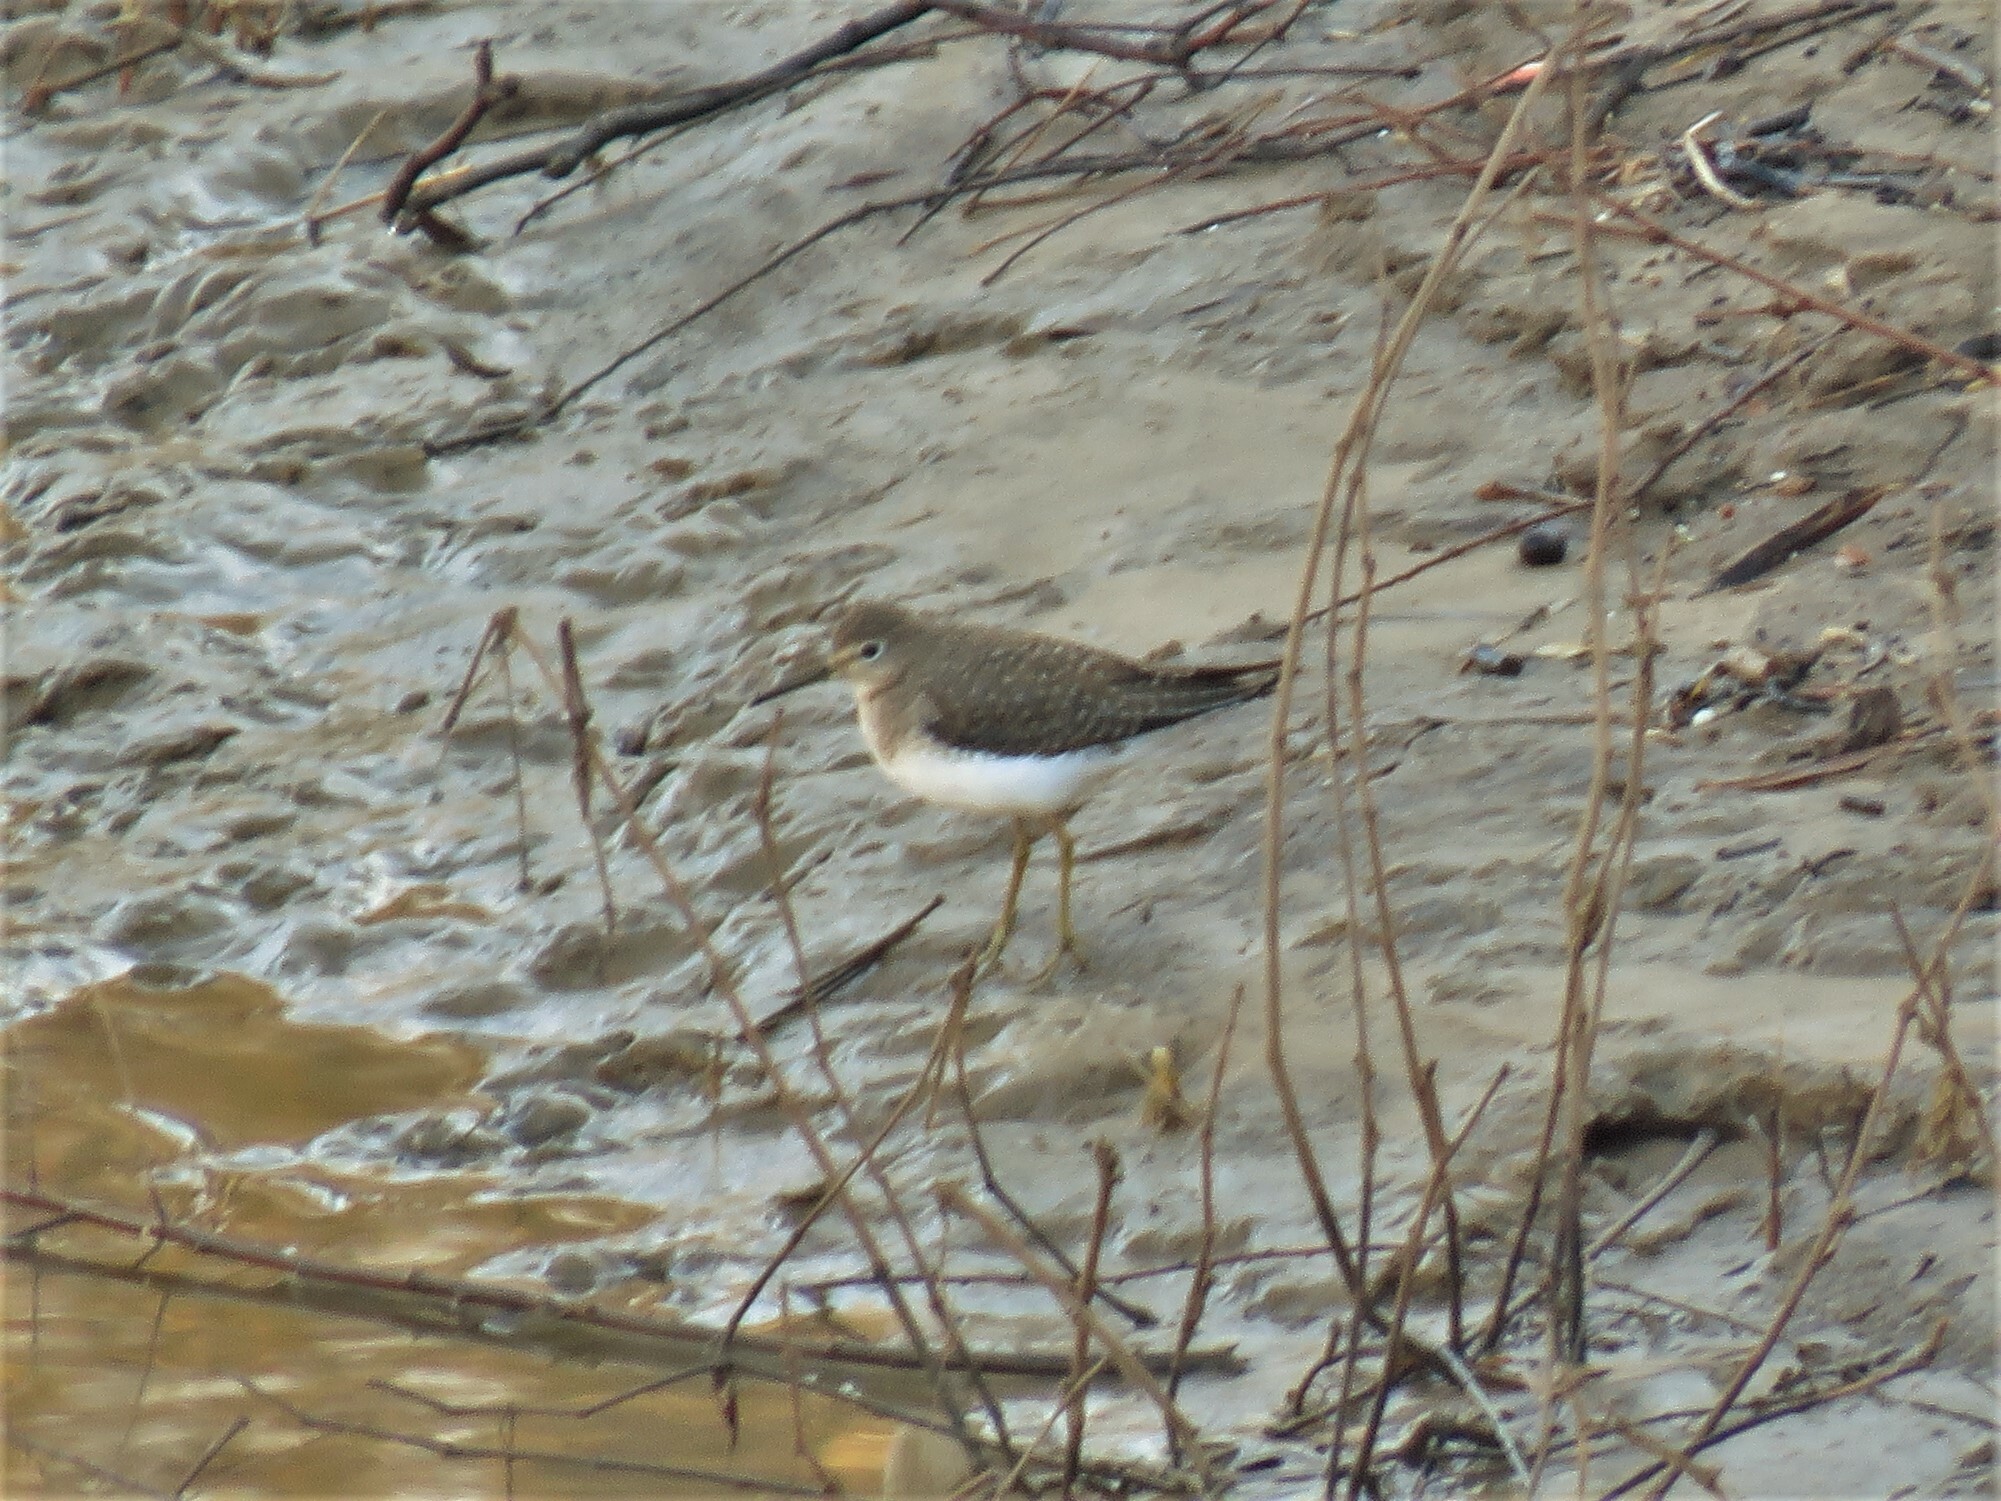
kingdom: Animalia
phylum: Chordata
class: Aves
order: Charadriiformes
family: Scolopacidae
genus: Tringa
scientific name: Tringa solitaria
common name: Solitary sandpiper
